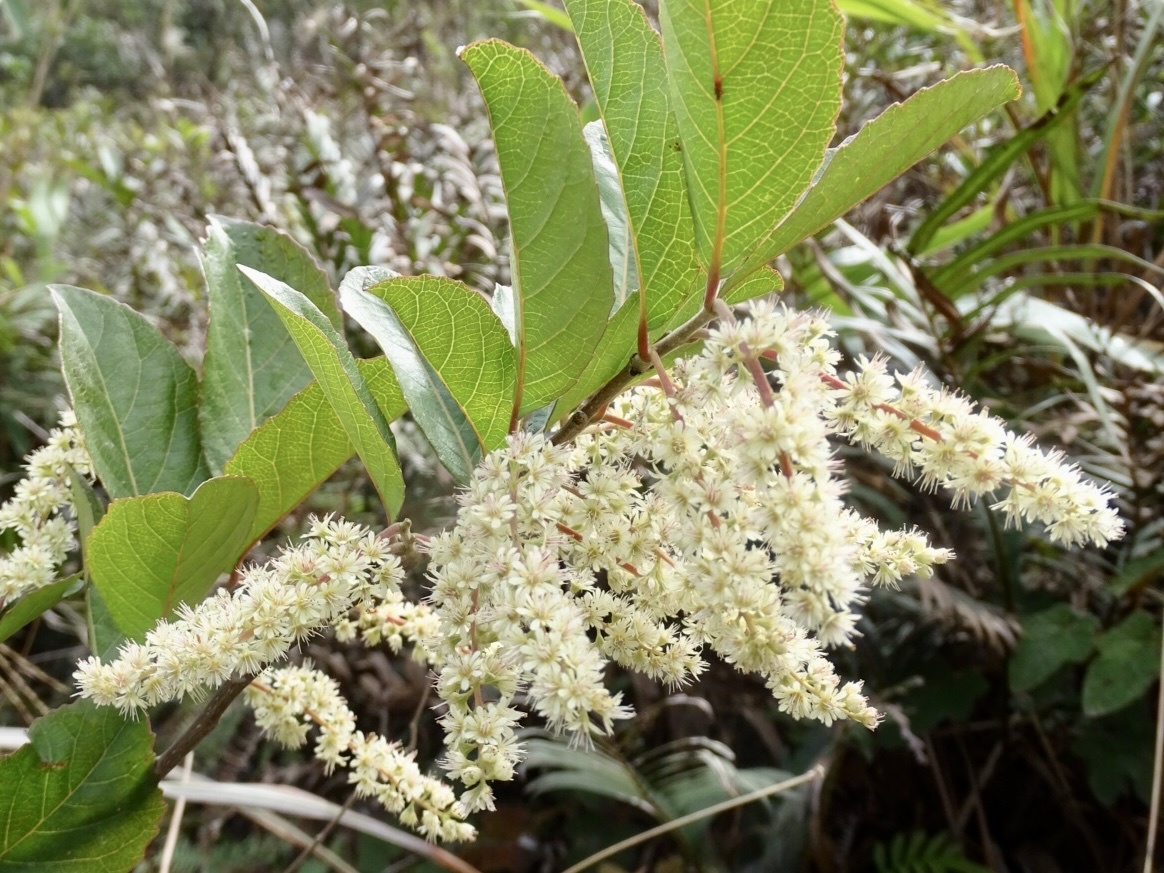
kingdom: Plantae
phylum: Tracheophyta
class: Magnoliopsida
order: Malpighiales
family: Salicaceae
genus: Homalium
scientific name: Homalium cochinchinensis
